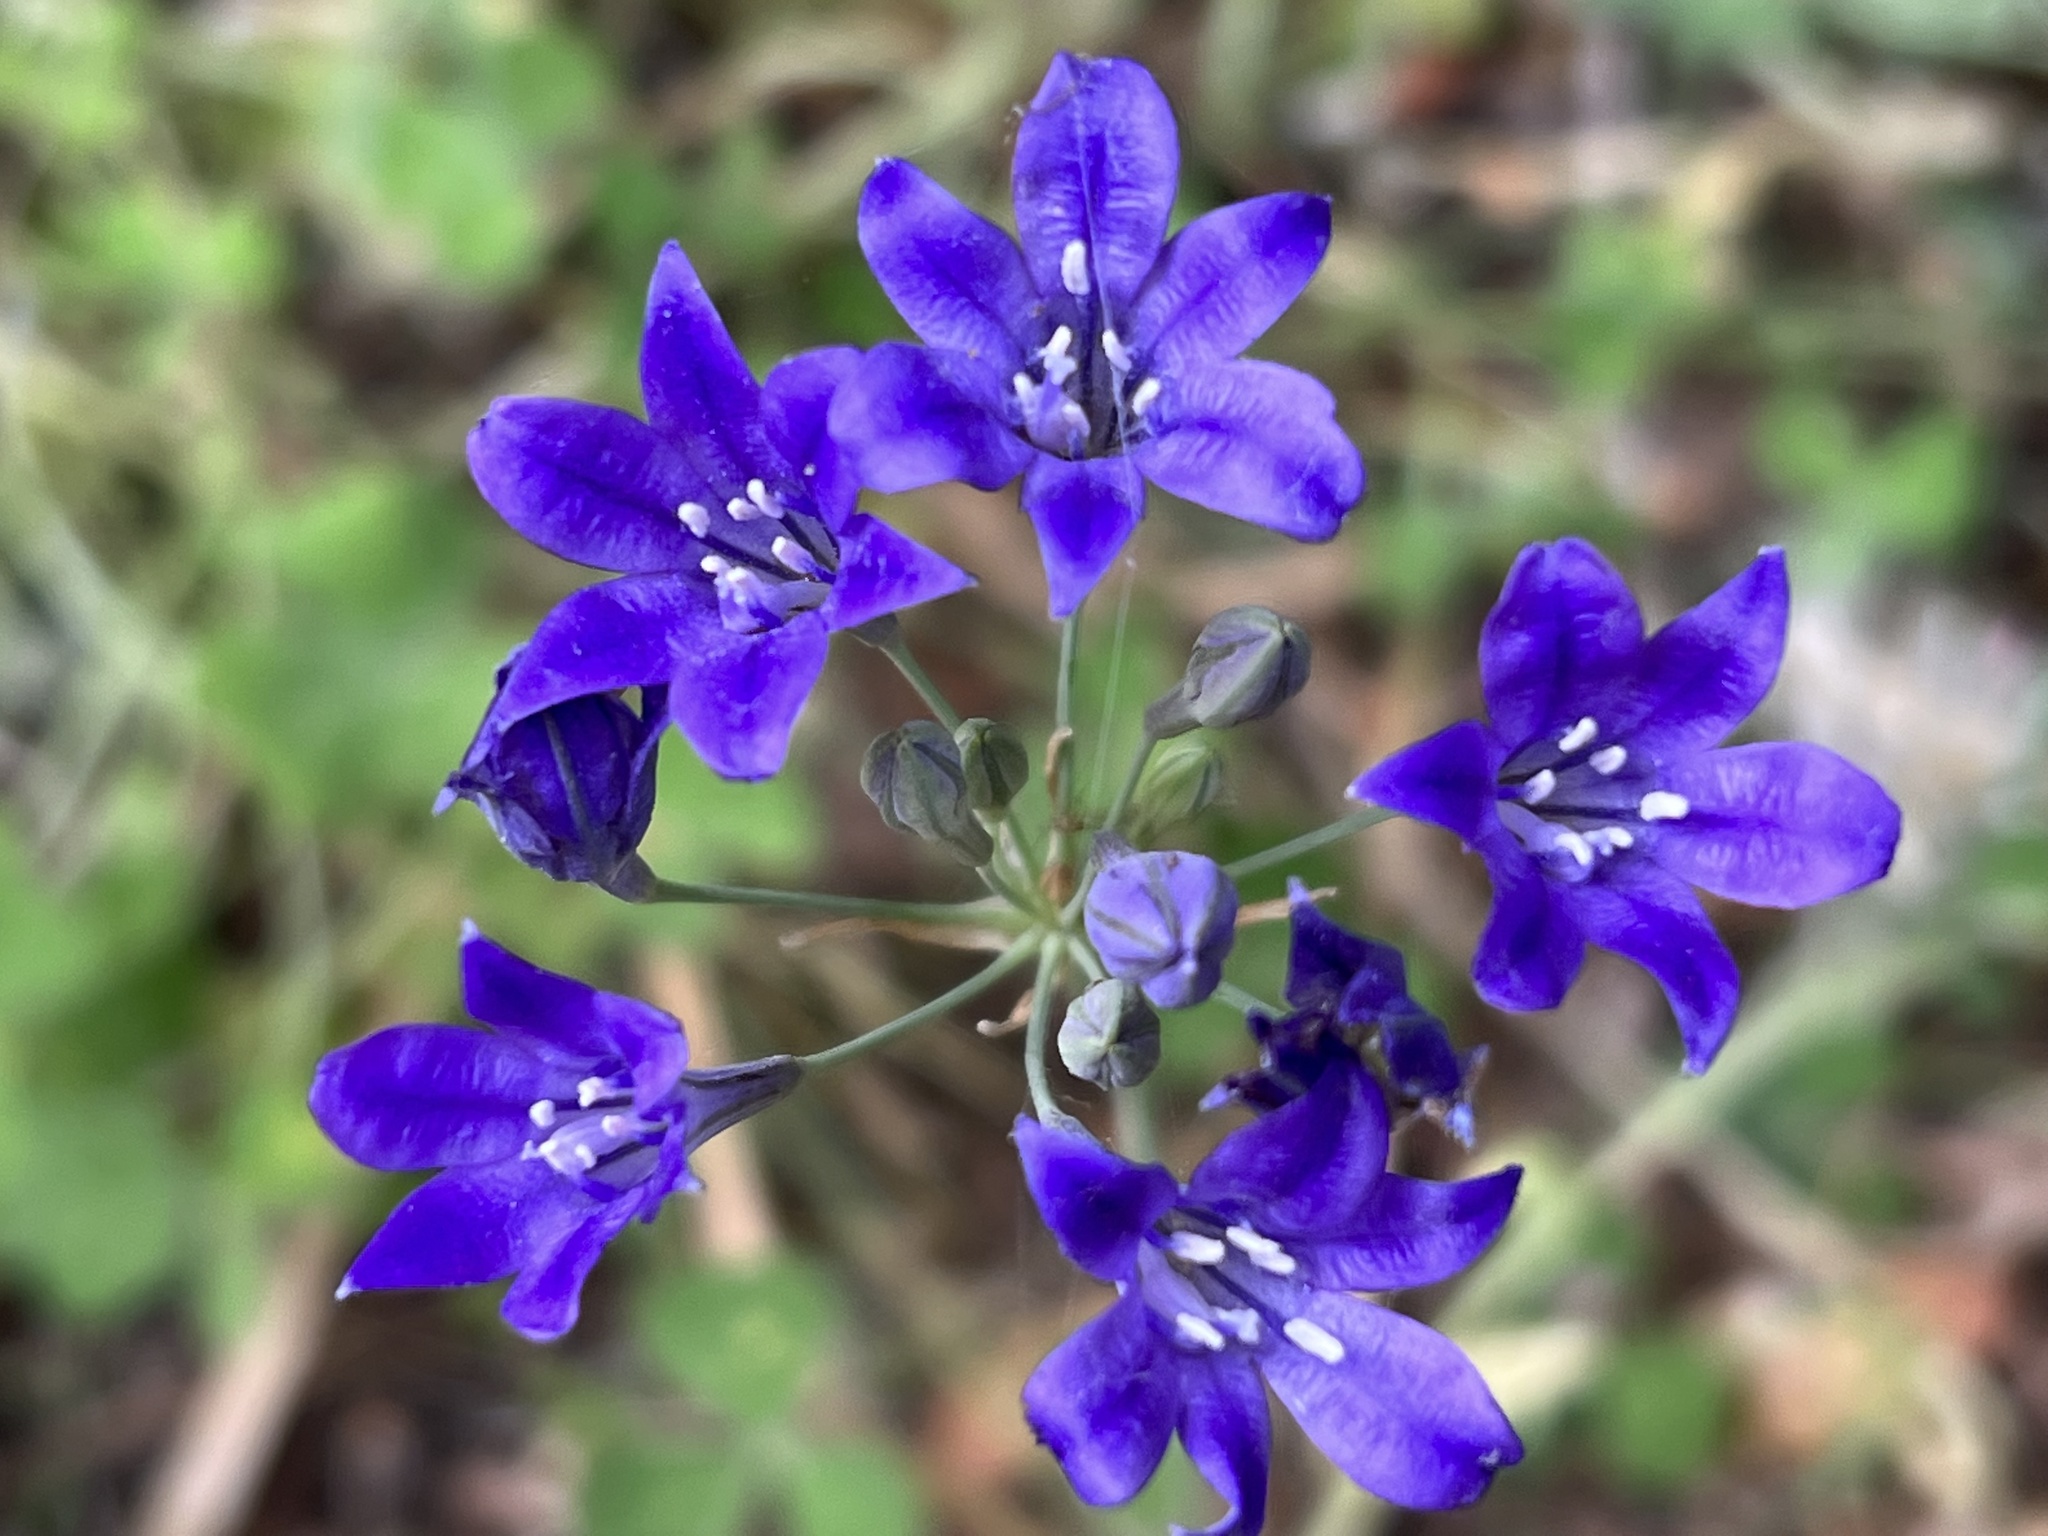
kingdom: Plantae
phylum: Tracheophyta
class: Liliopsida
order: Asparagales
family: Asparagaceae
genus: Triteleia
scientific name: Triteleia laxa
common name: Triplet-lily
